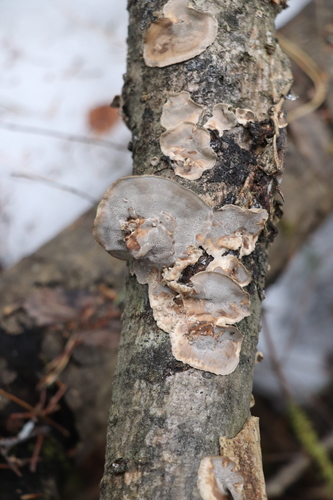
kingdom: Fungi
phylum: Basidiomycota
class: Agaricomycetes
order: Polyporales
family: Phanerochaetaceae
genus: Bjerkandera
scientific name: Bjerkandera adusta
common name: Smoky bracket
